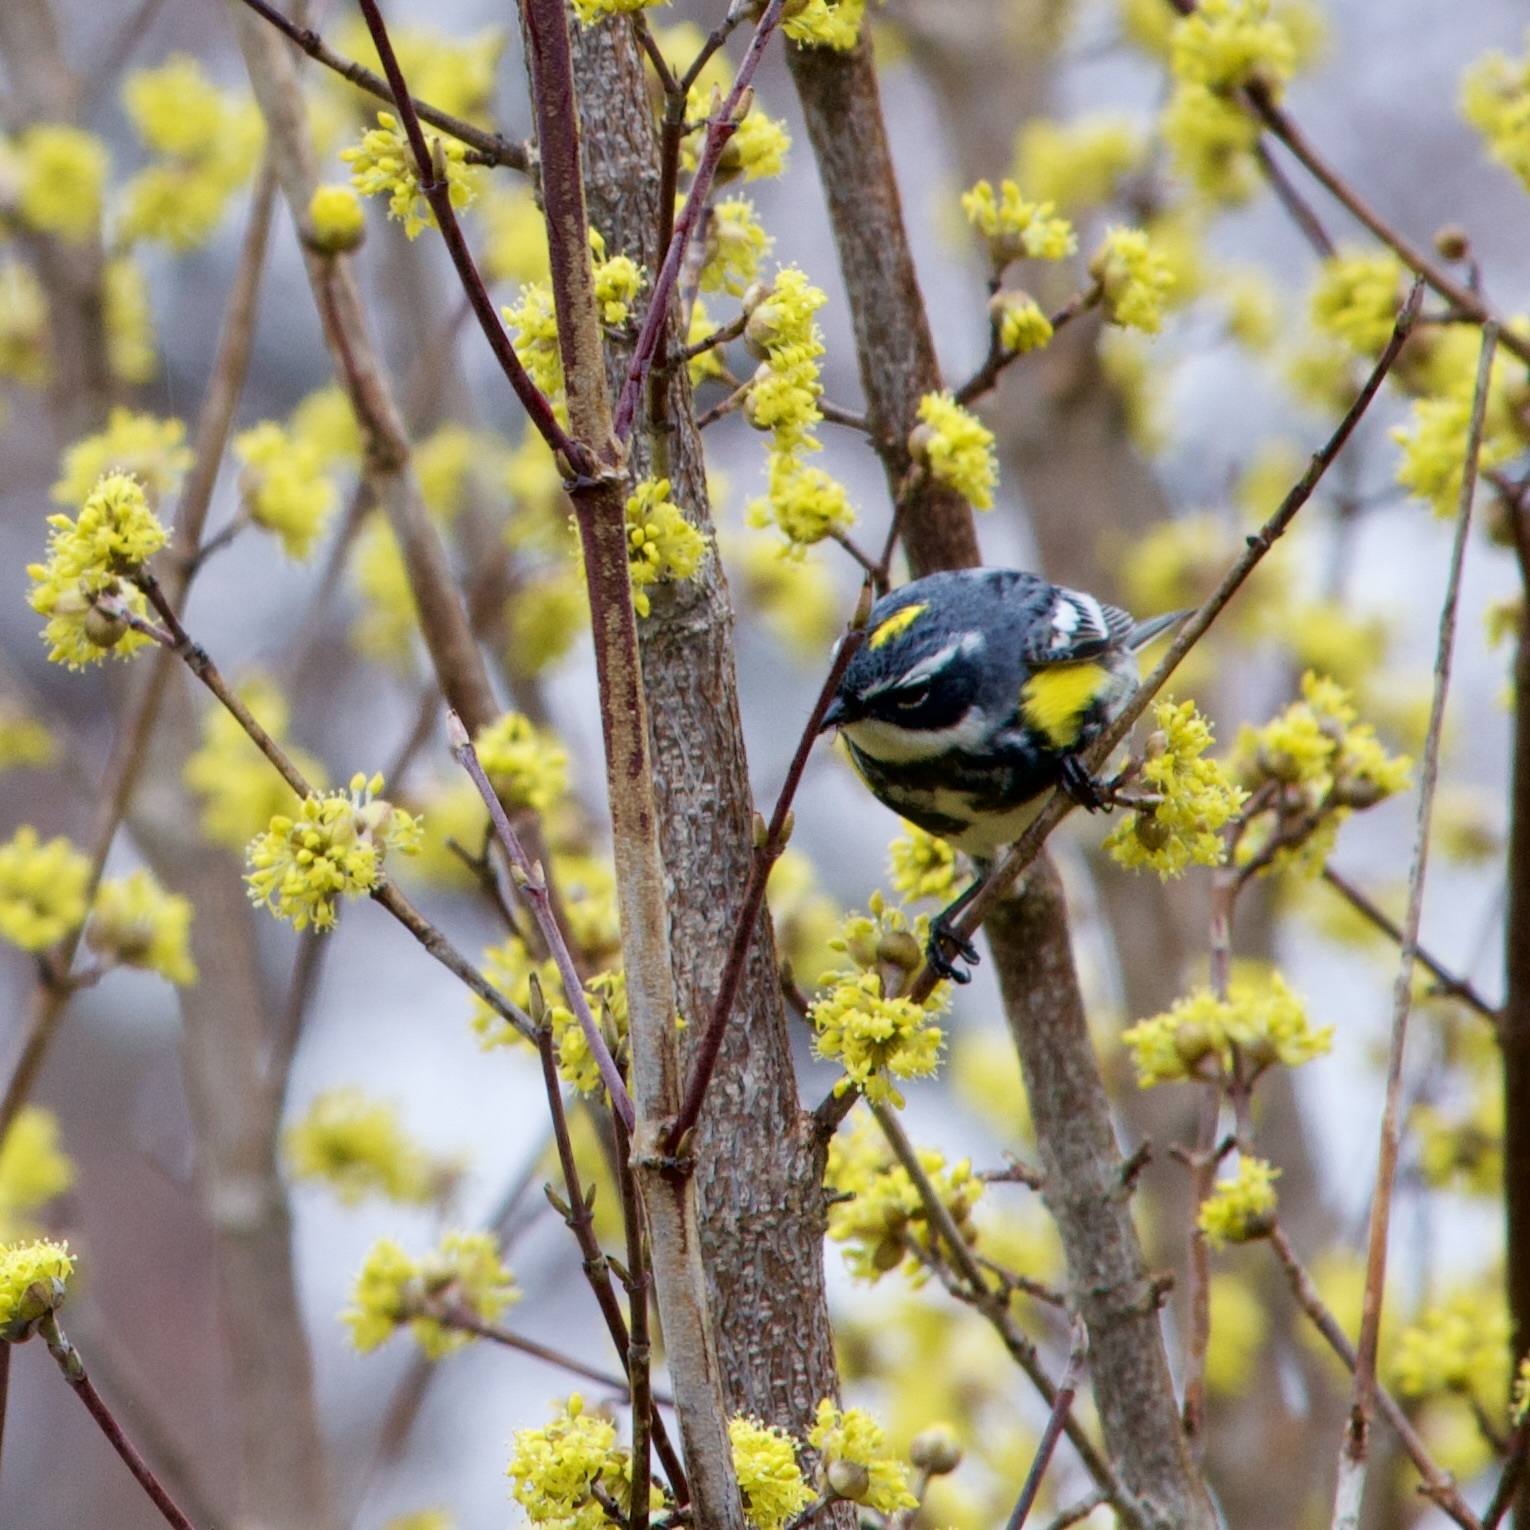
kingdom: Animalia
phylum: Chordata
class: Aves
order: Passeriformes
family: Parulidae
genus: Setophaga
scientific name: Setophaga coronata
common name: Myrtle warbler
